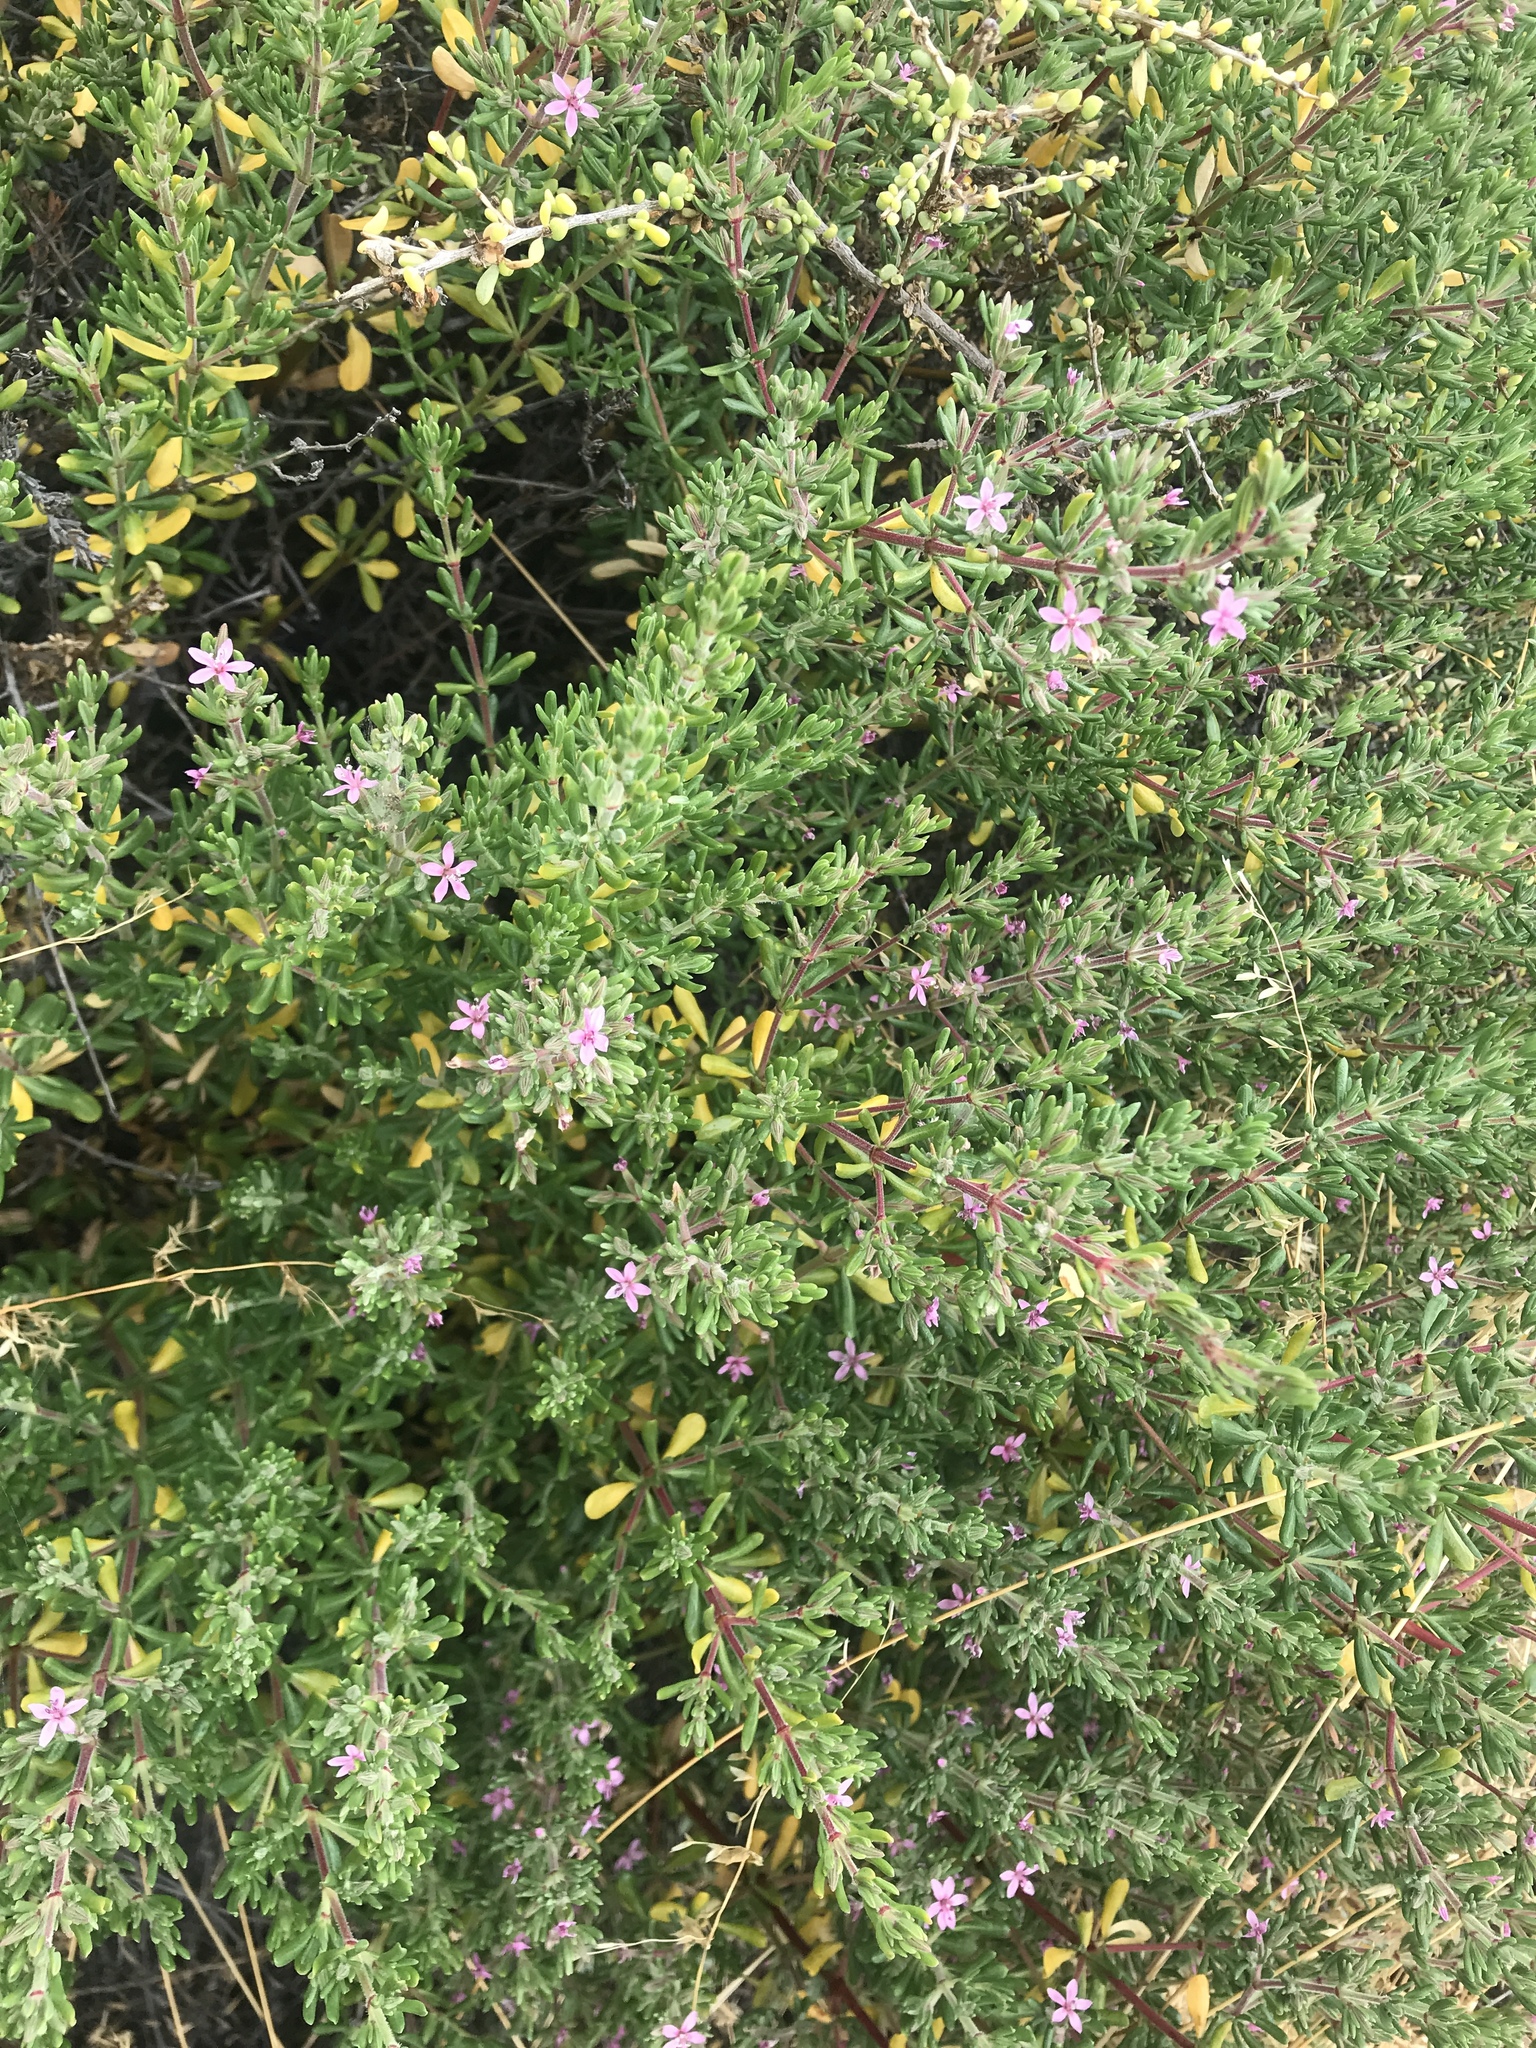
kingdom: Plantae
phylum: Tracheophyta
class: Magnoliopsida
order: Caryophyllales
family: Frankeniaceae
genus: Frankenia
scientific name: Frankenia salina
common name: Alkali seaheath
